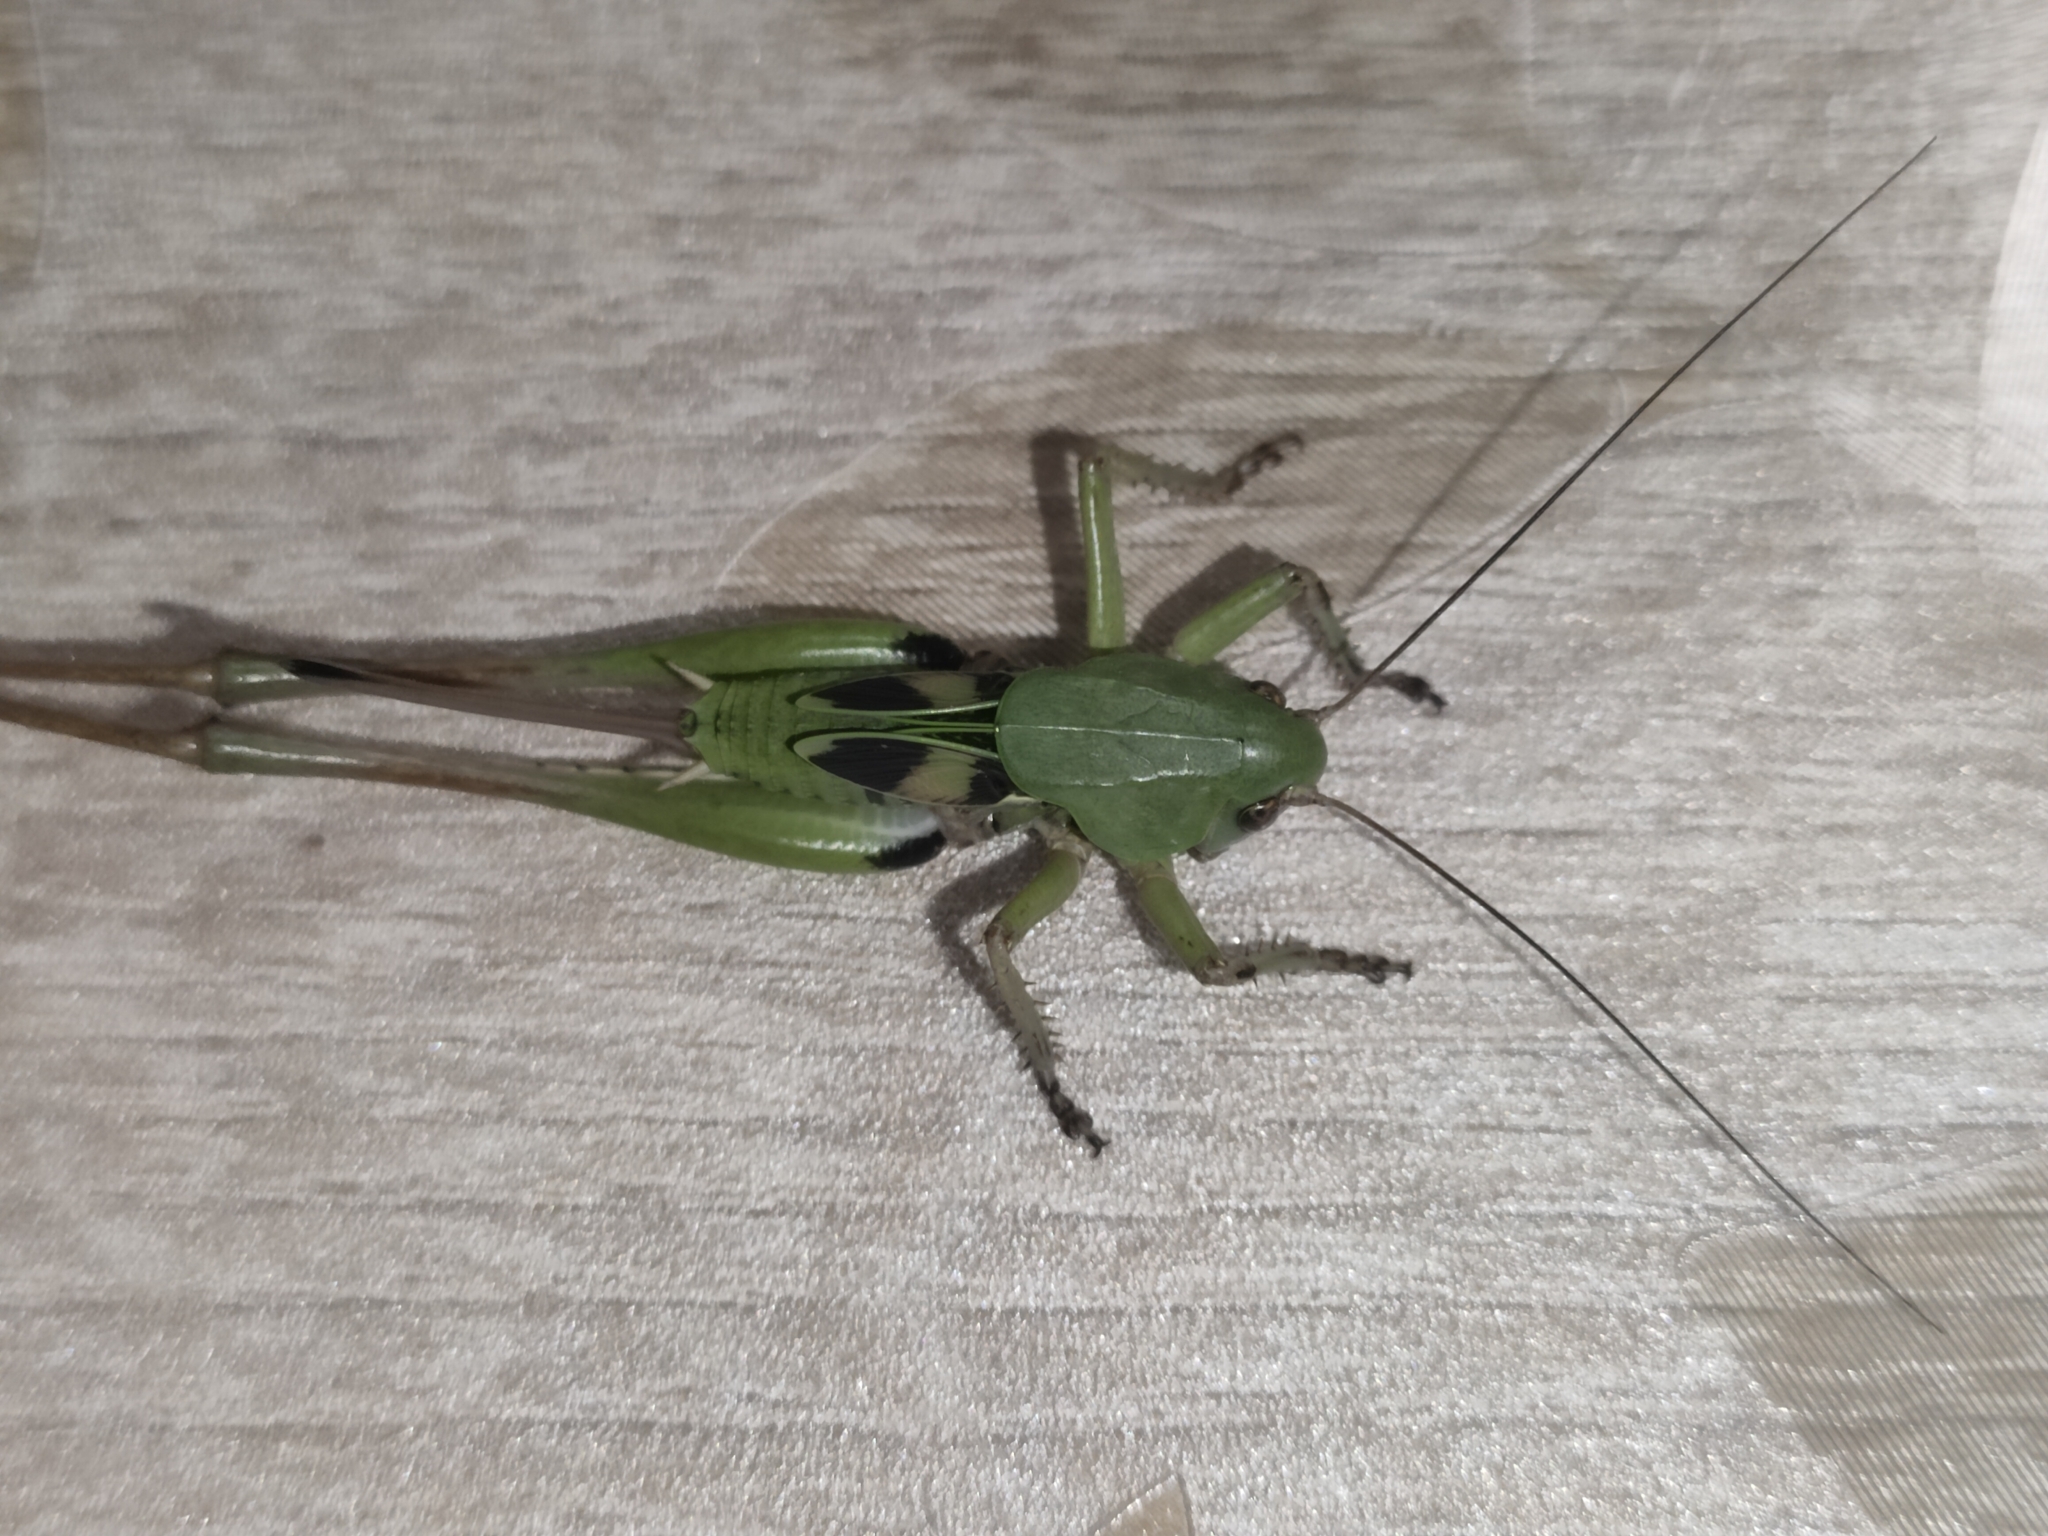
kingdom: Animalia
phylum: Arthropoda
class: Insecta
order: Orthoptera
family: Tettigoniidae
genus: Decticus
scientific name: Decticus verrucivorus
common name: Wart-biter
